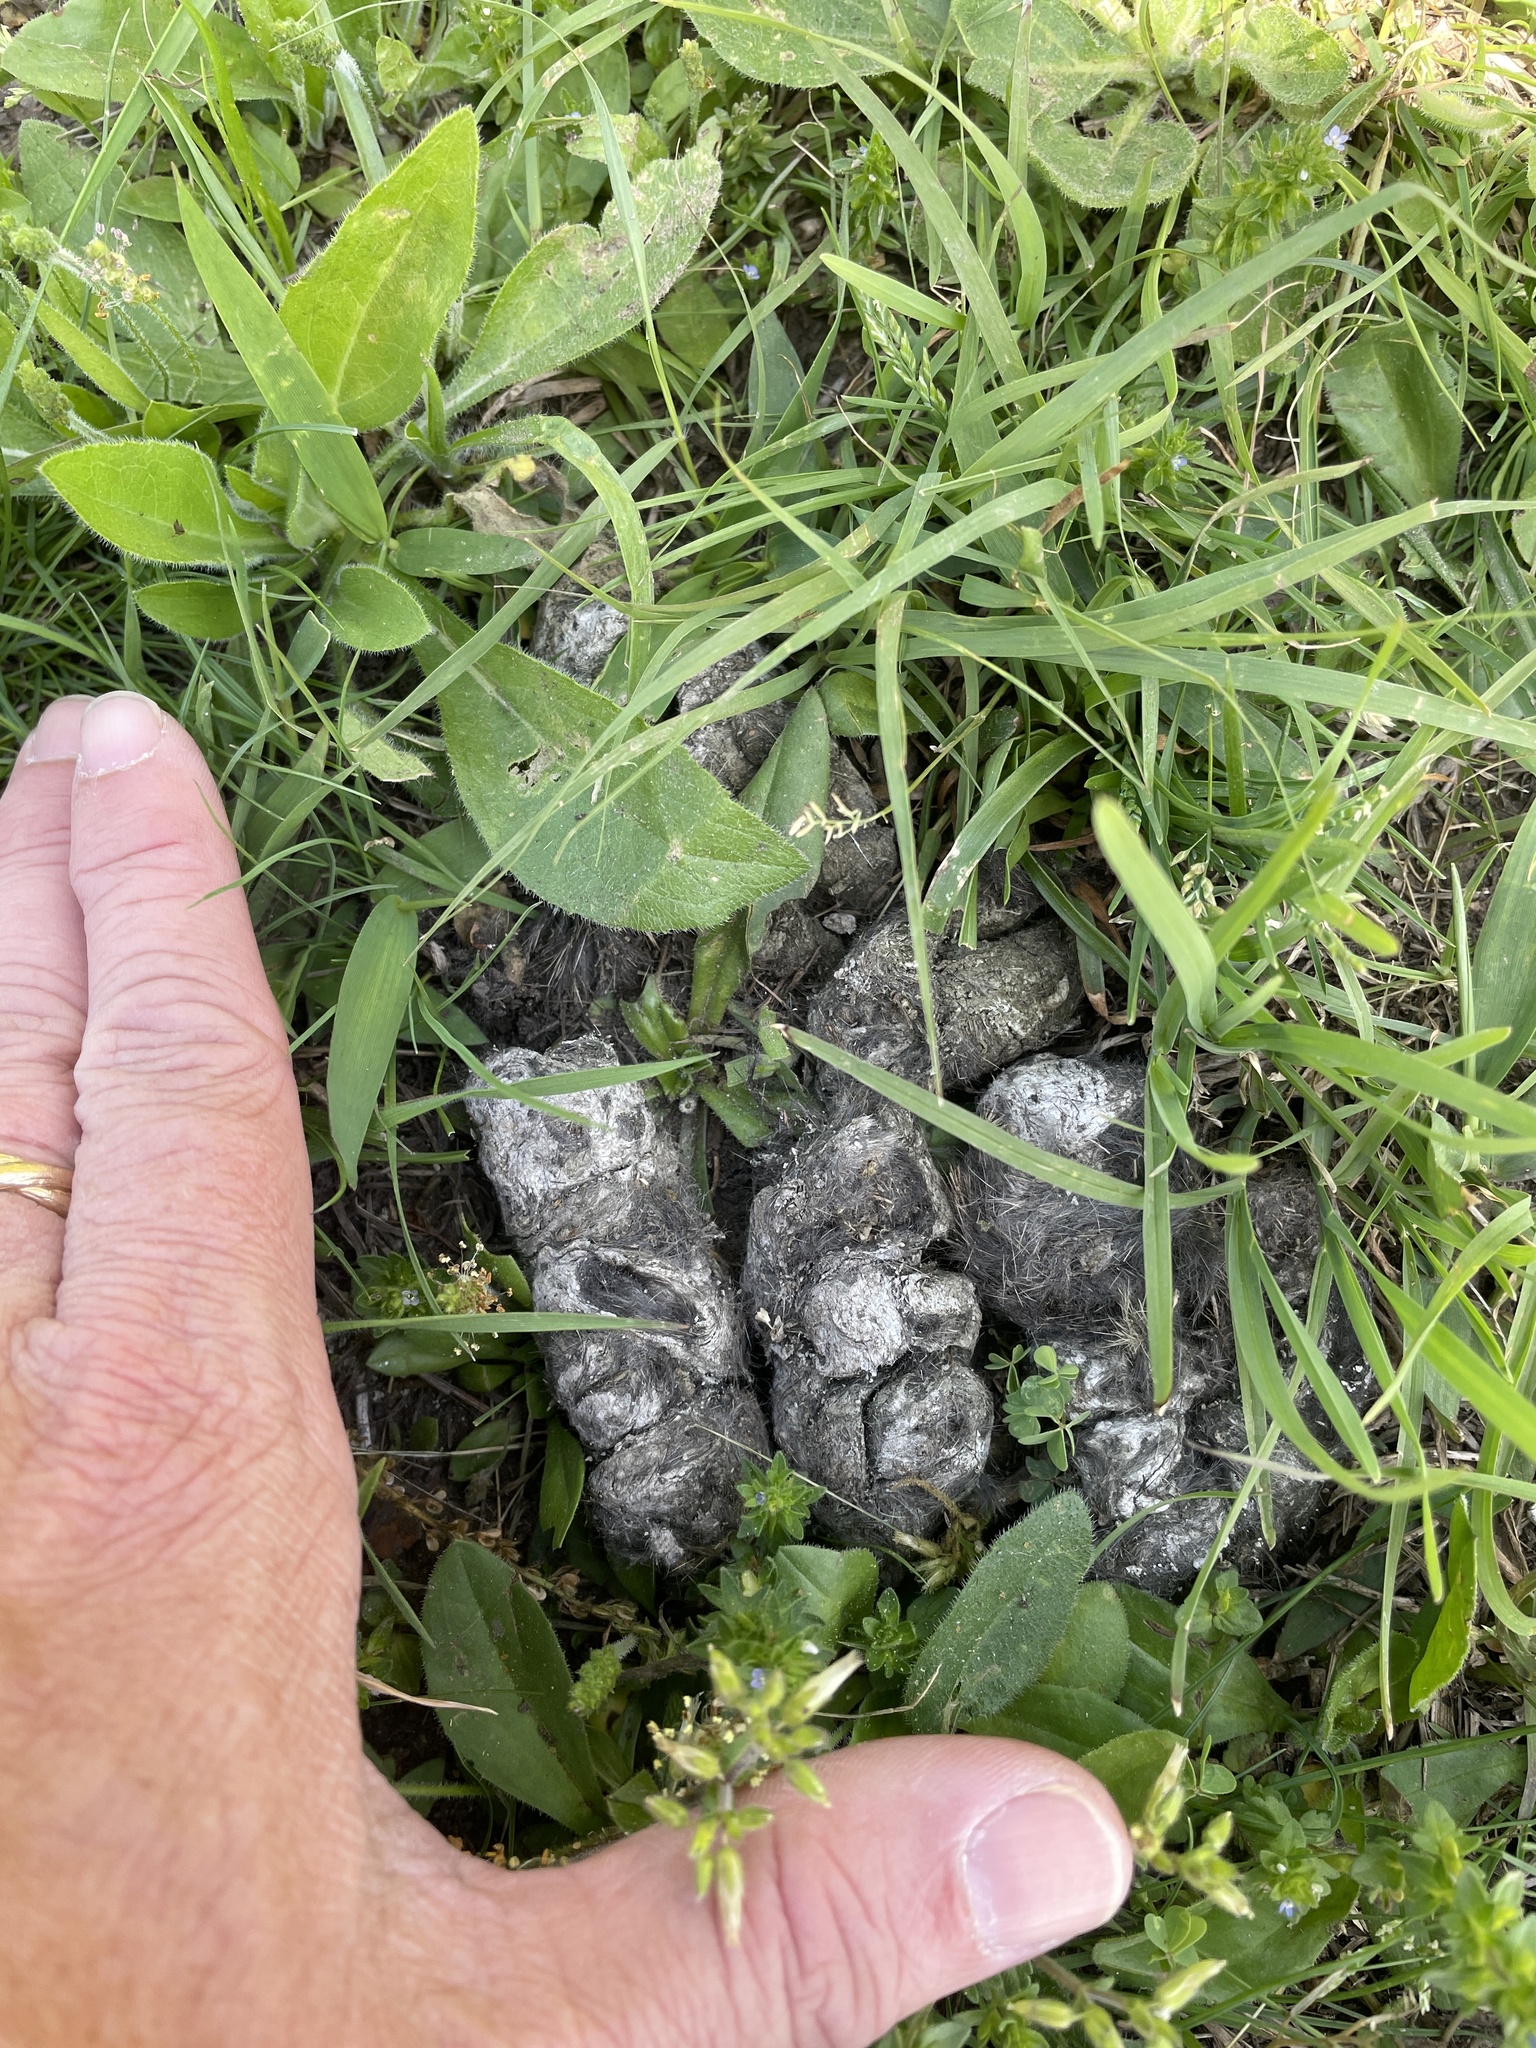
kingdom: Animalia
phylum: Chordata
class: Mammalia
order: Carnivora
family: Canidae
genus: Canis
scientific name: Canis latrans
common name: Coyote
